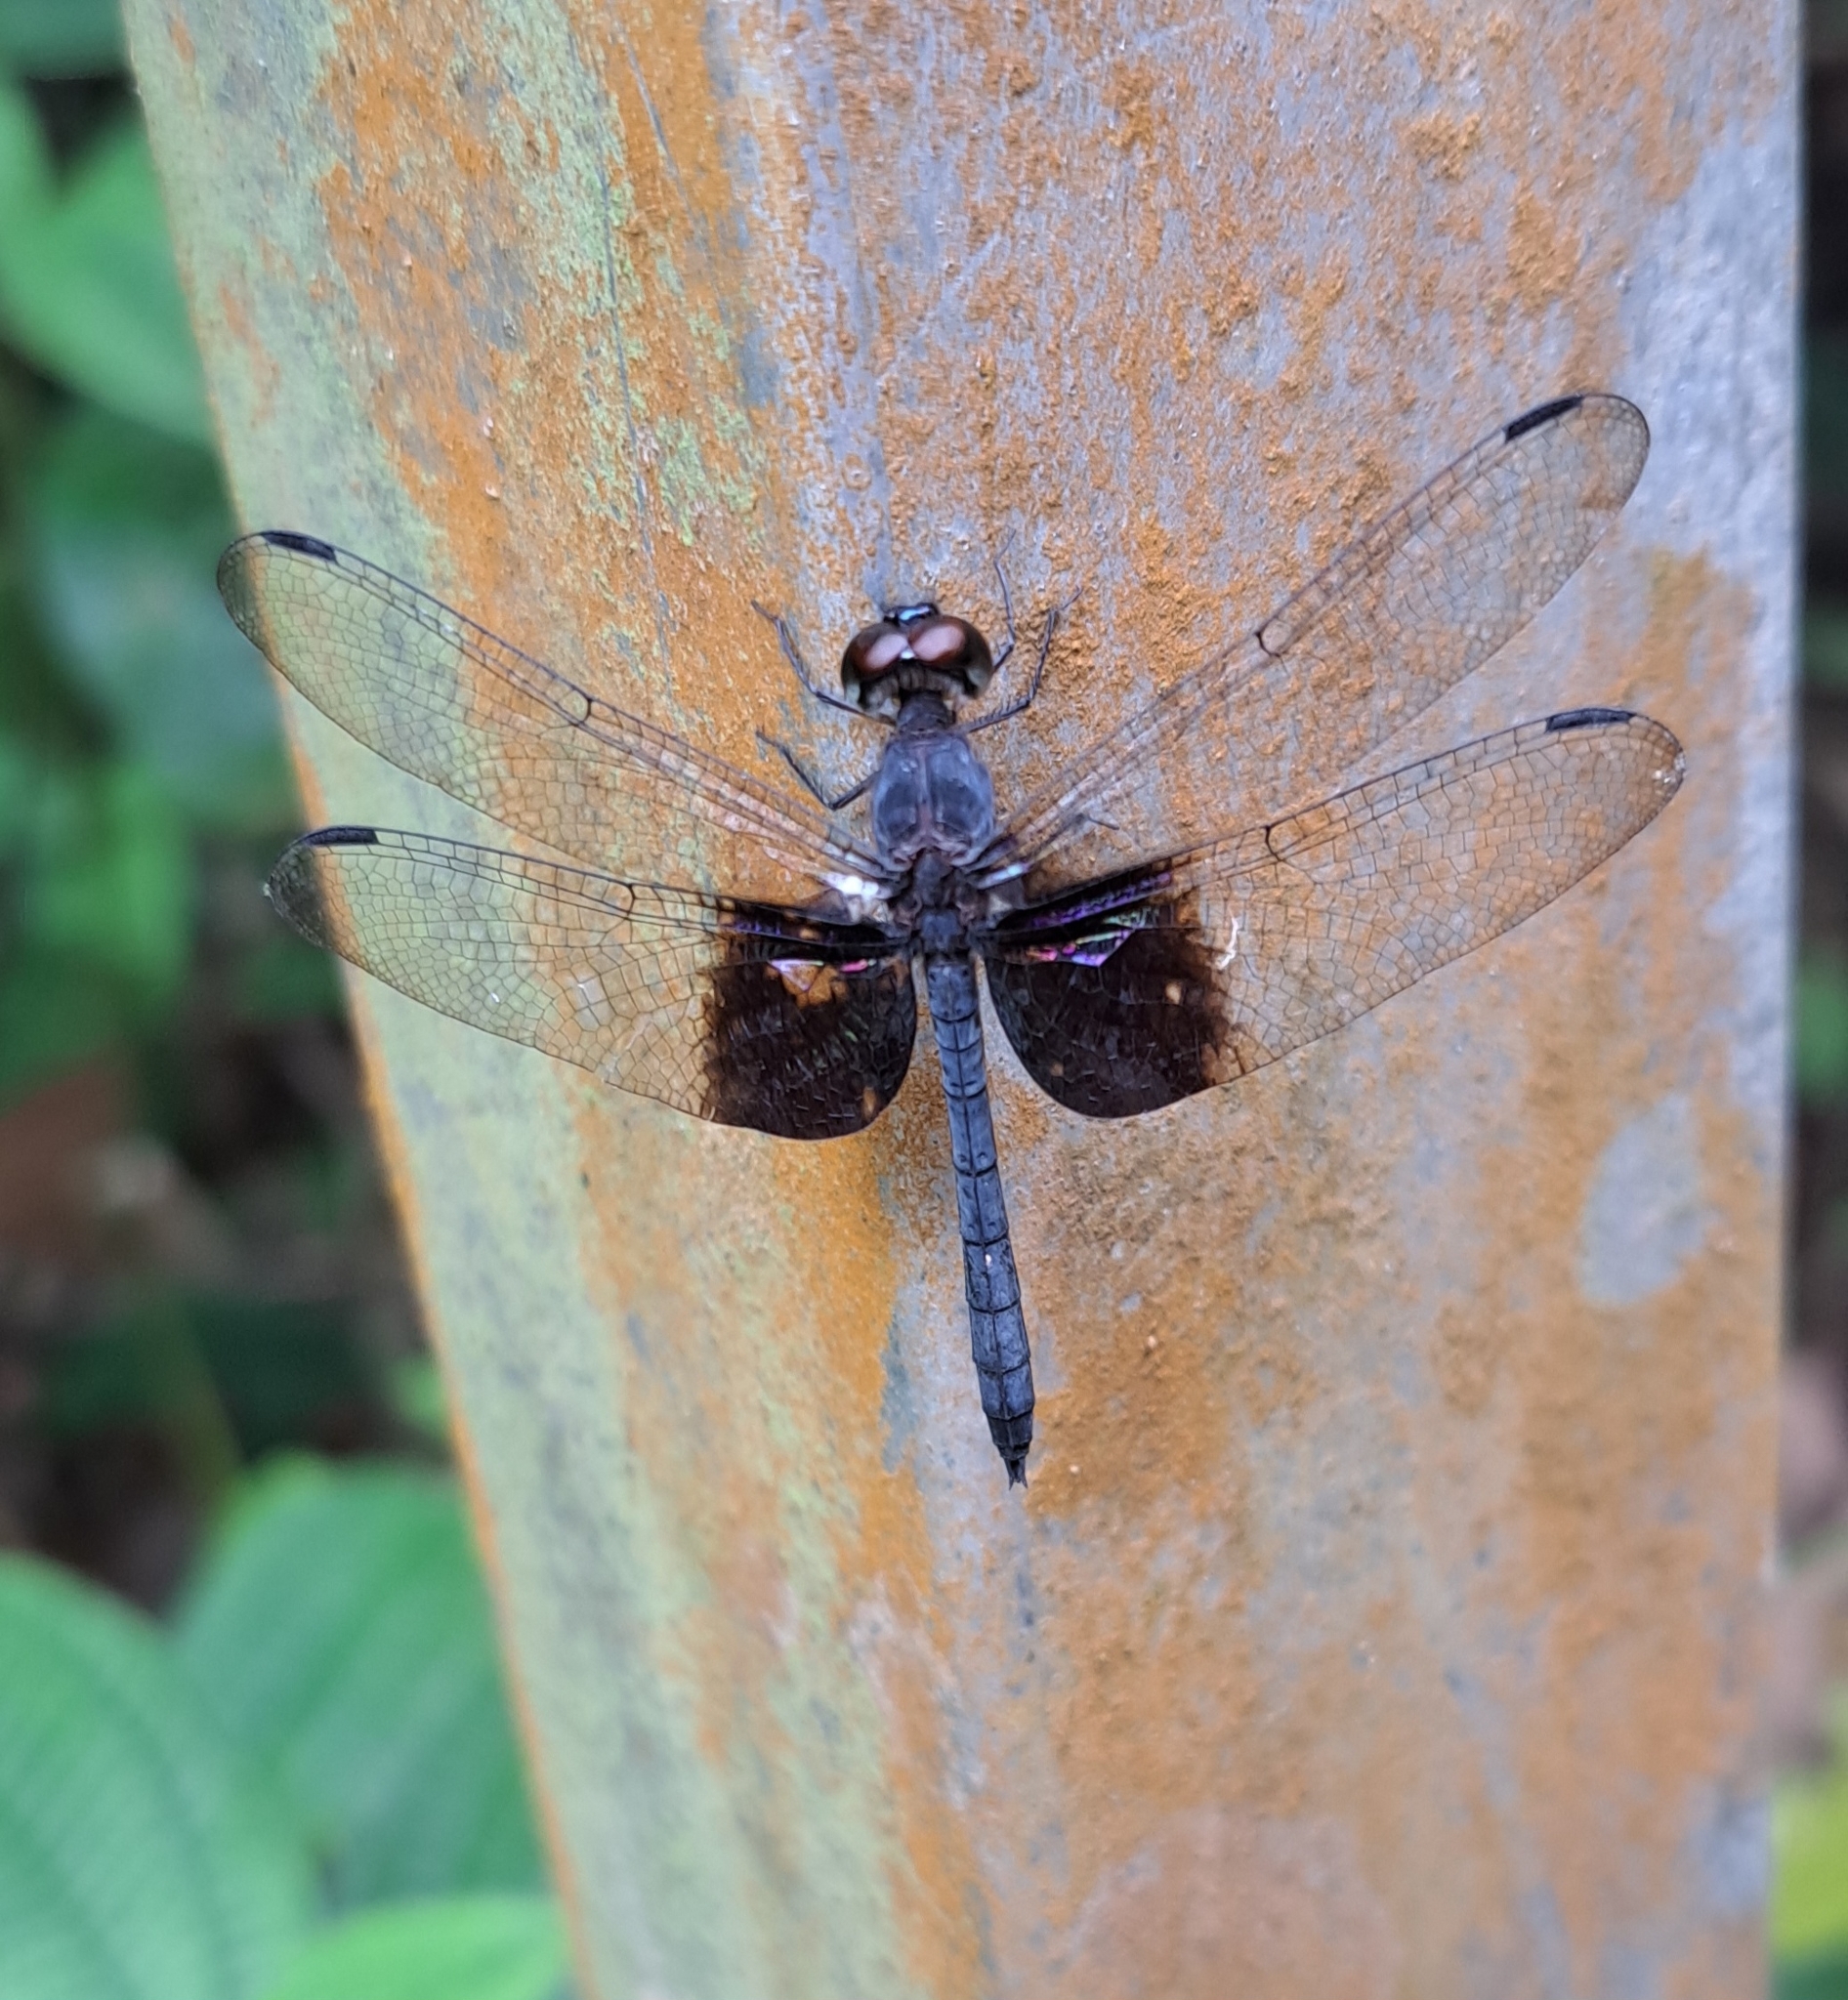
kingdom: Animalia
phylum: Arthropoda
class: Insecta
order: Odonata
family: Libellulidae
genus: Tyriobapta
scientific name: Tyriobapta torrida
